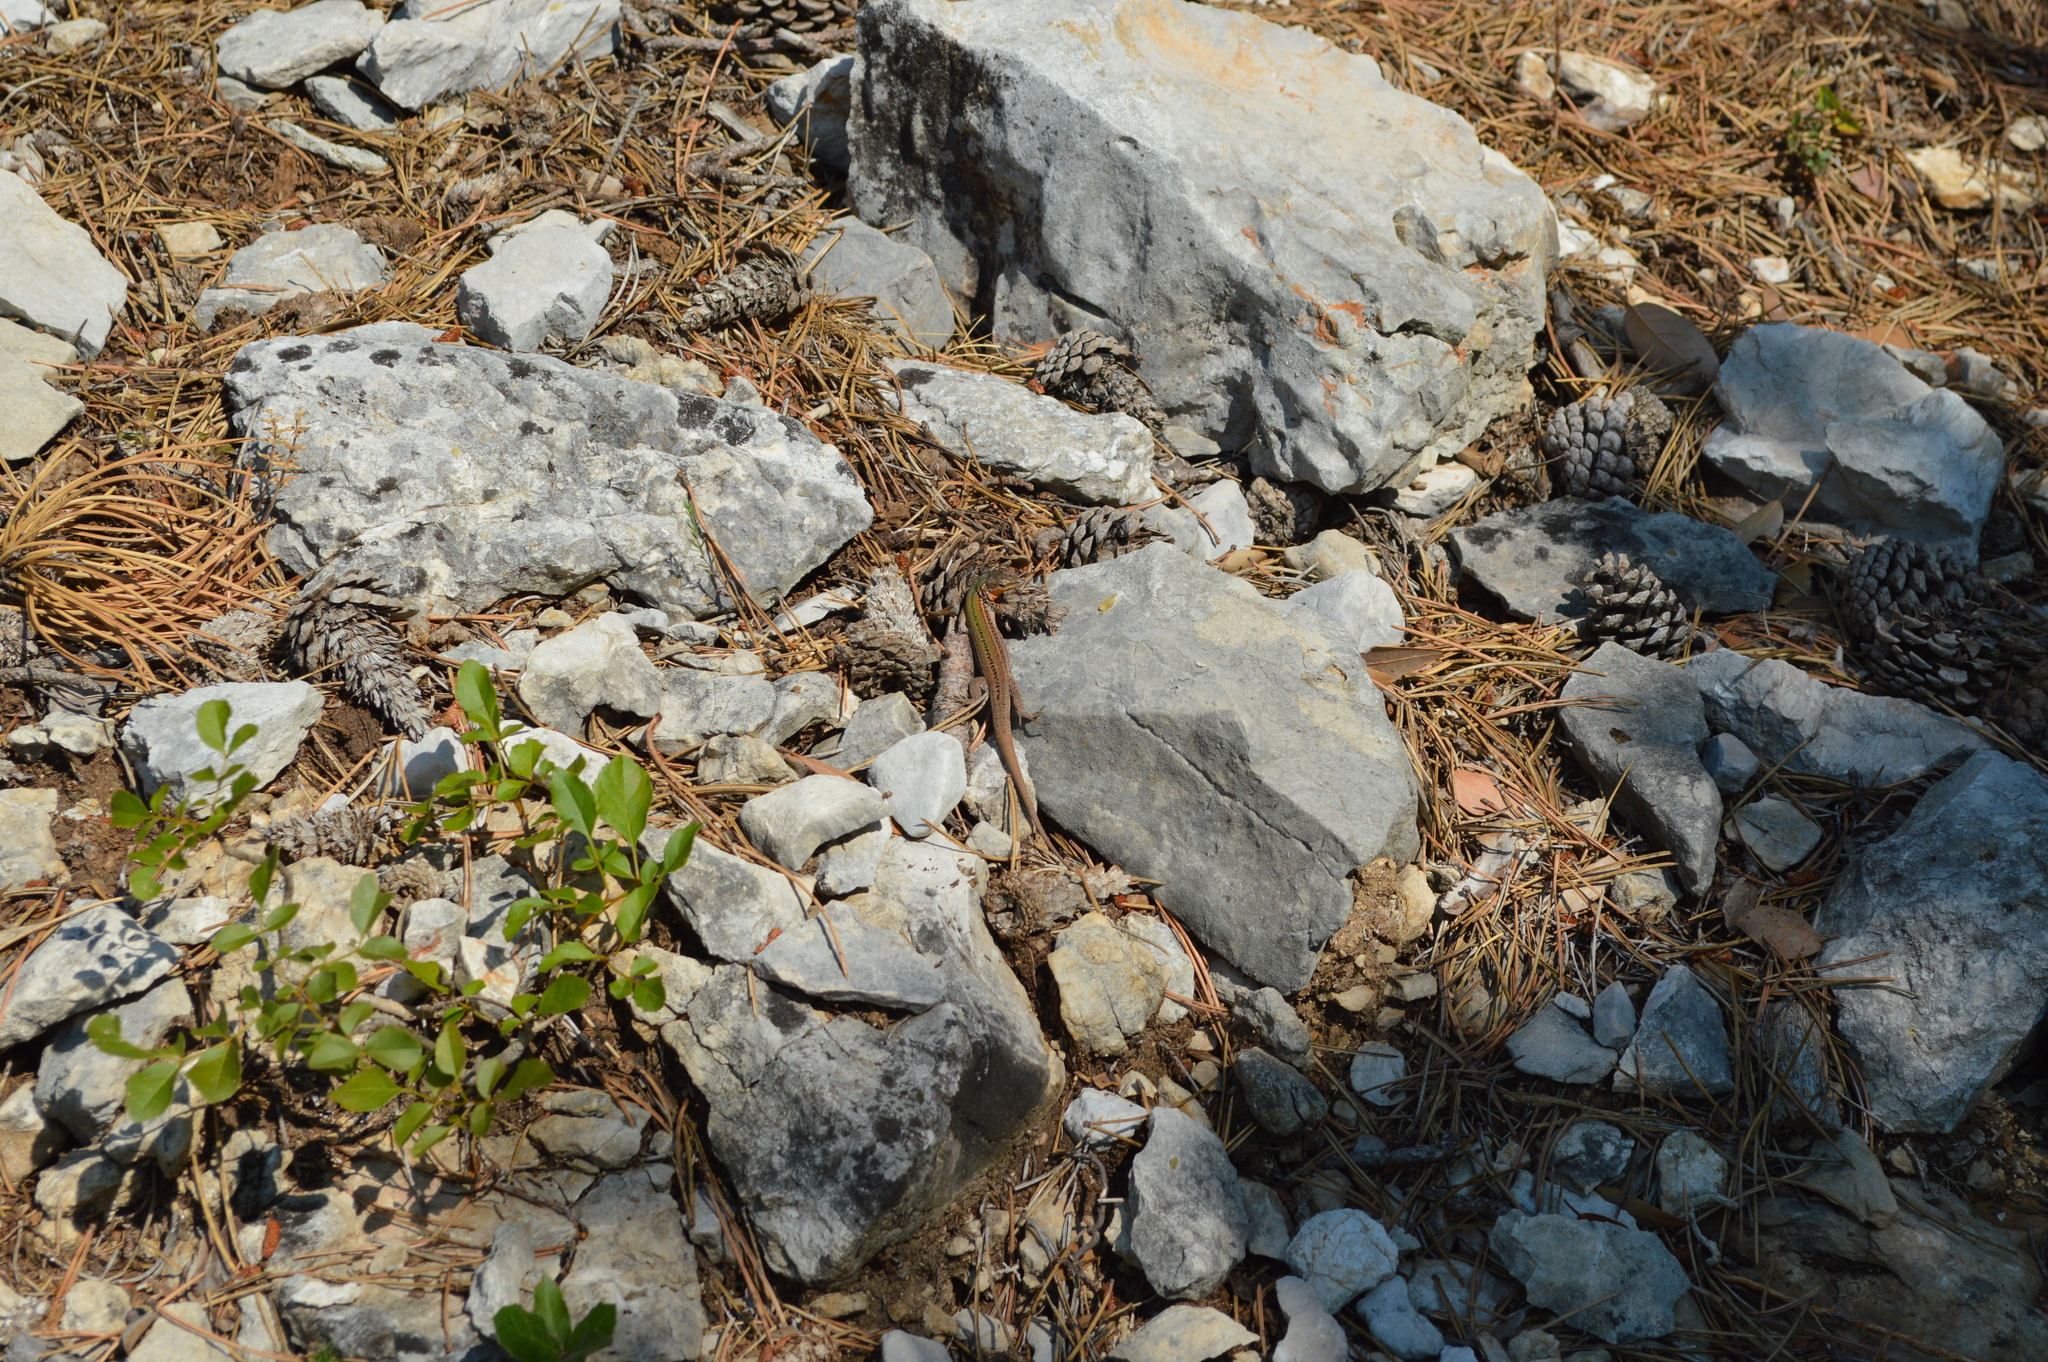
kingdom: Animalia
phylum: Chordata
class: Squamata
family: Lacertidae
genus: Podarcis
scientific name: Podarcis melisellensis
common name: Dalmatian wall lizard
